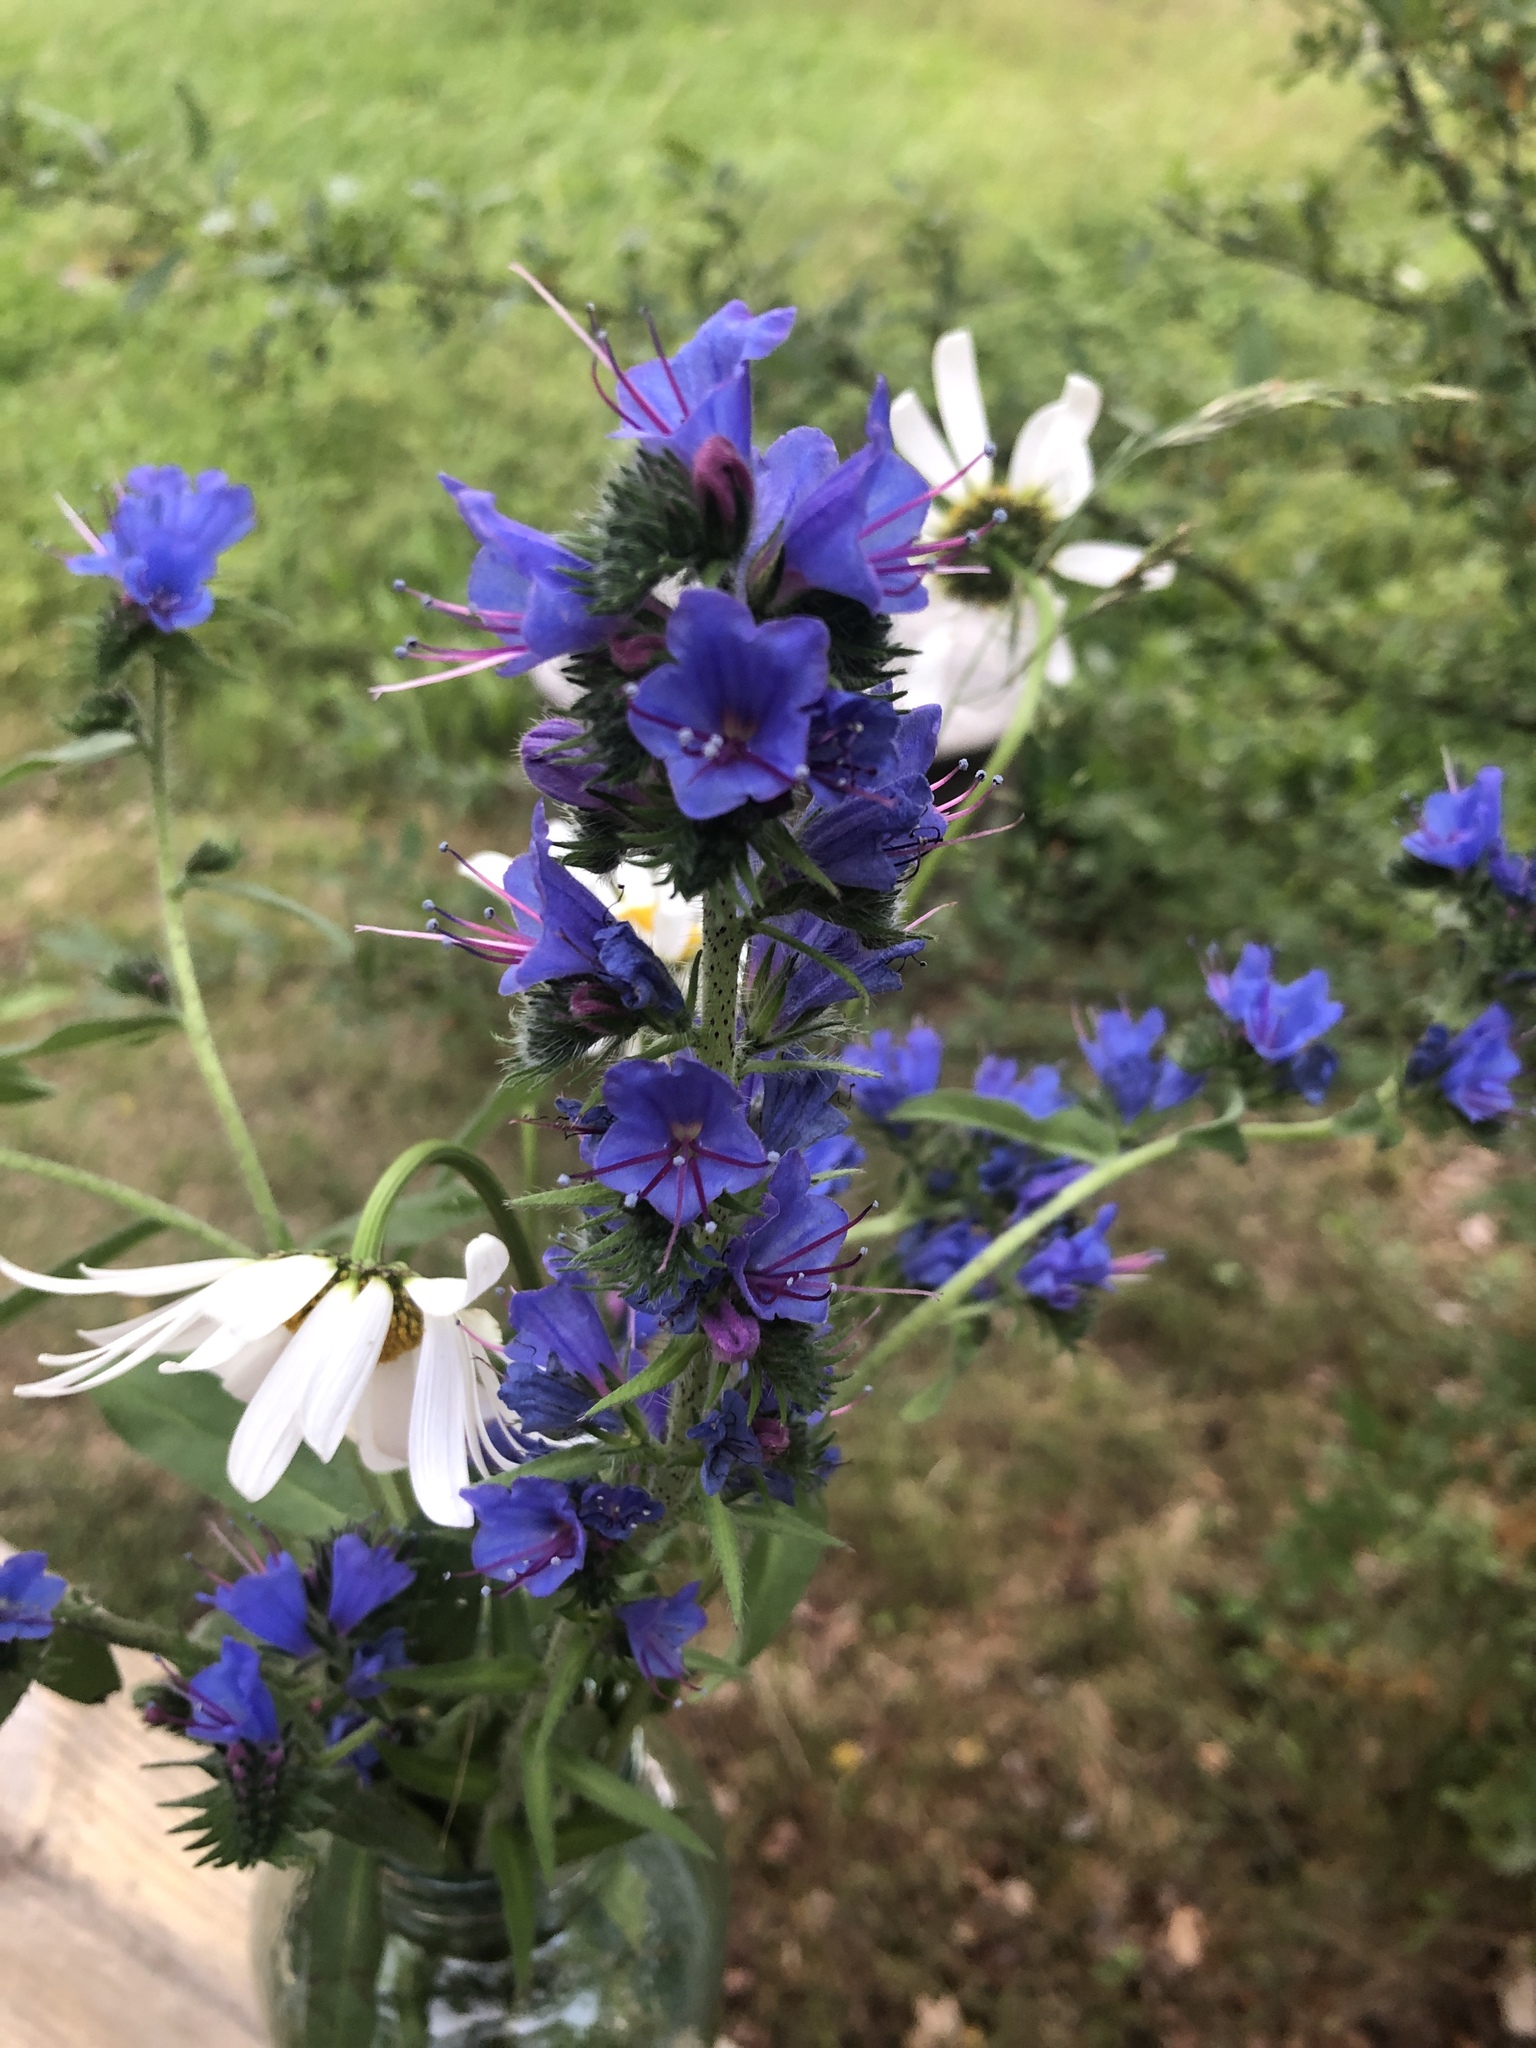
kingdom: Plantae
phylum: Tracheophyta
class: Magnoliopsida
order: Boraginales
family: Boraginaceae
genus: Echium
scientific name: Echium vulgare
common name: Common viper's bugloss
